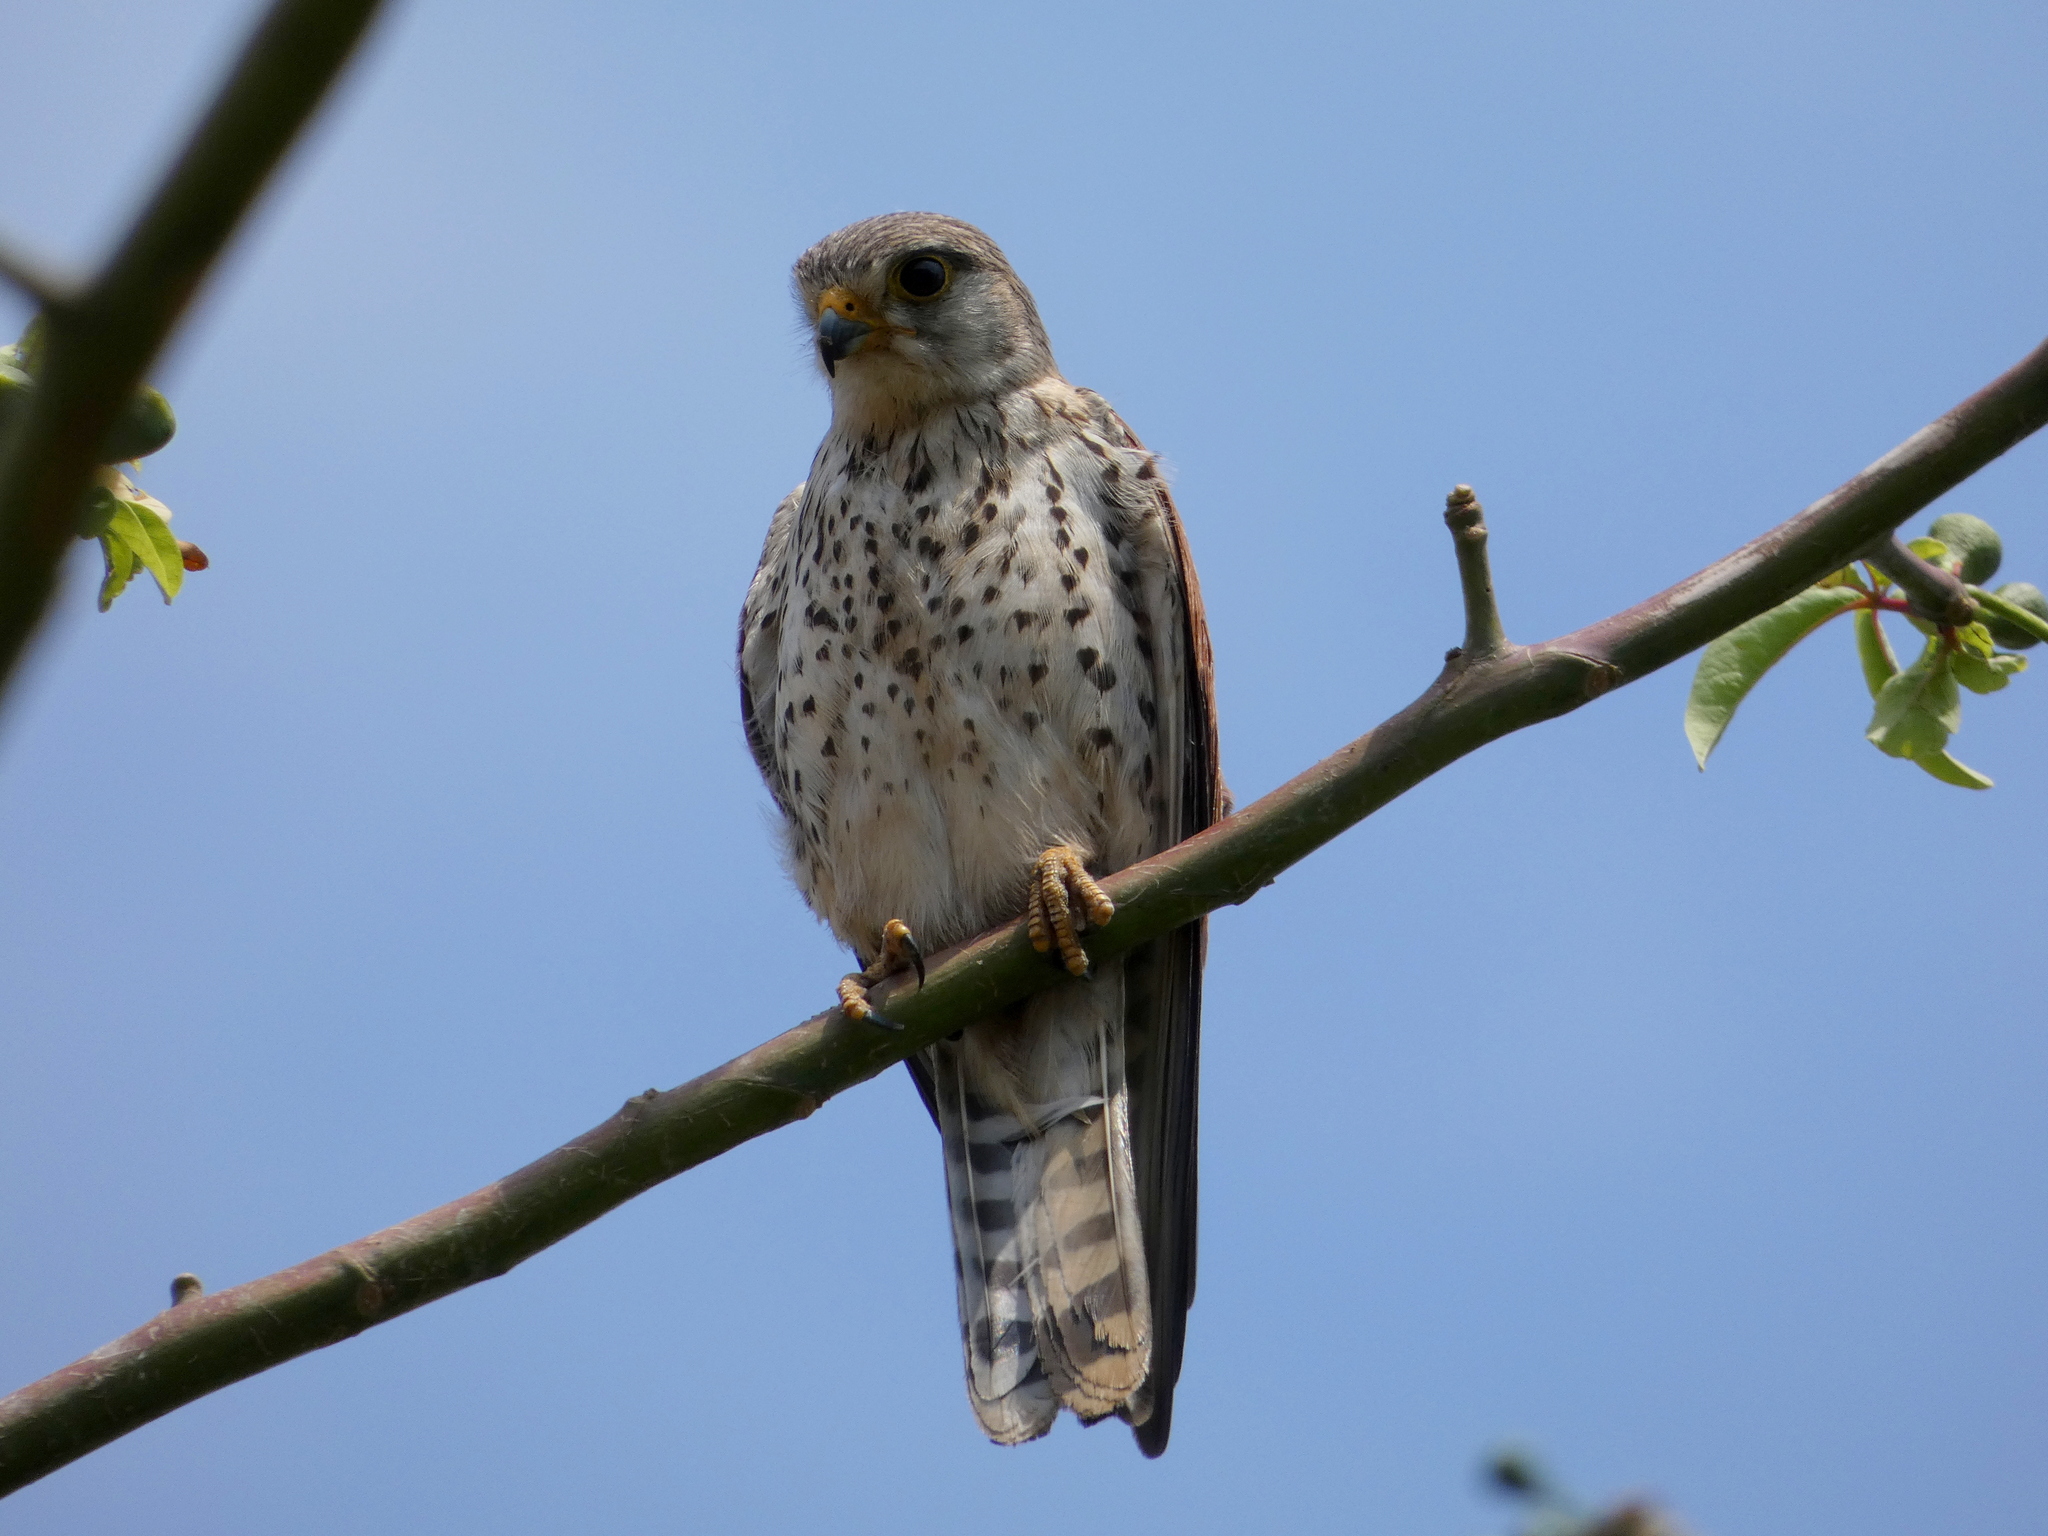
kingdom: Animalia
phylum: Chordata
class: Aves
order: Falconiformes
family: Falconidae
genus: Falco
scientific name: Falco newtoni
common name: Malagasy kestrel
